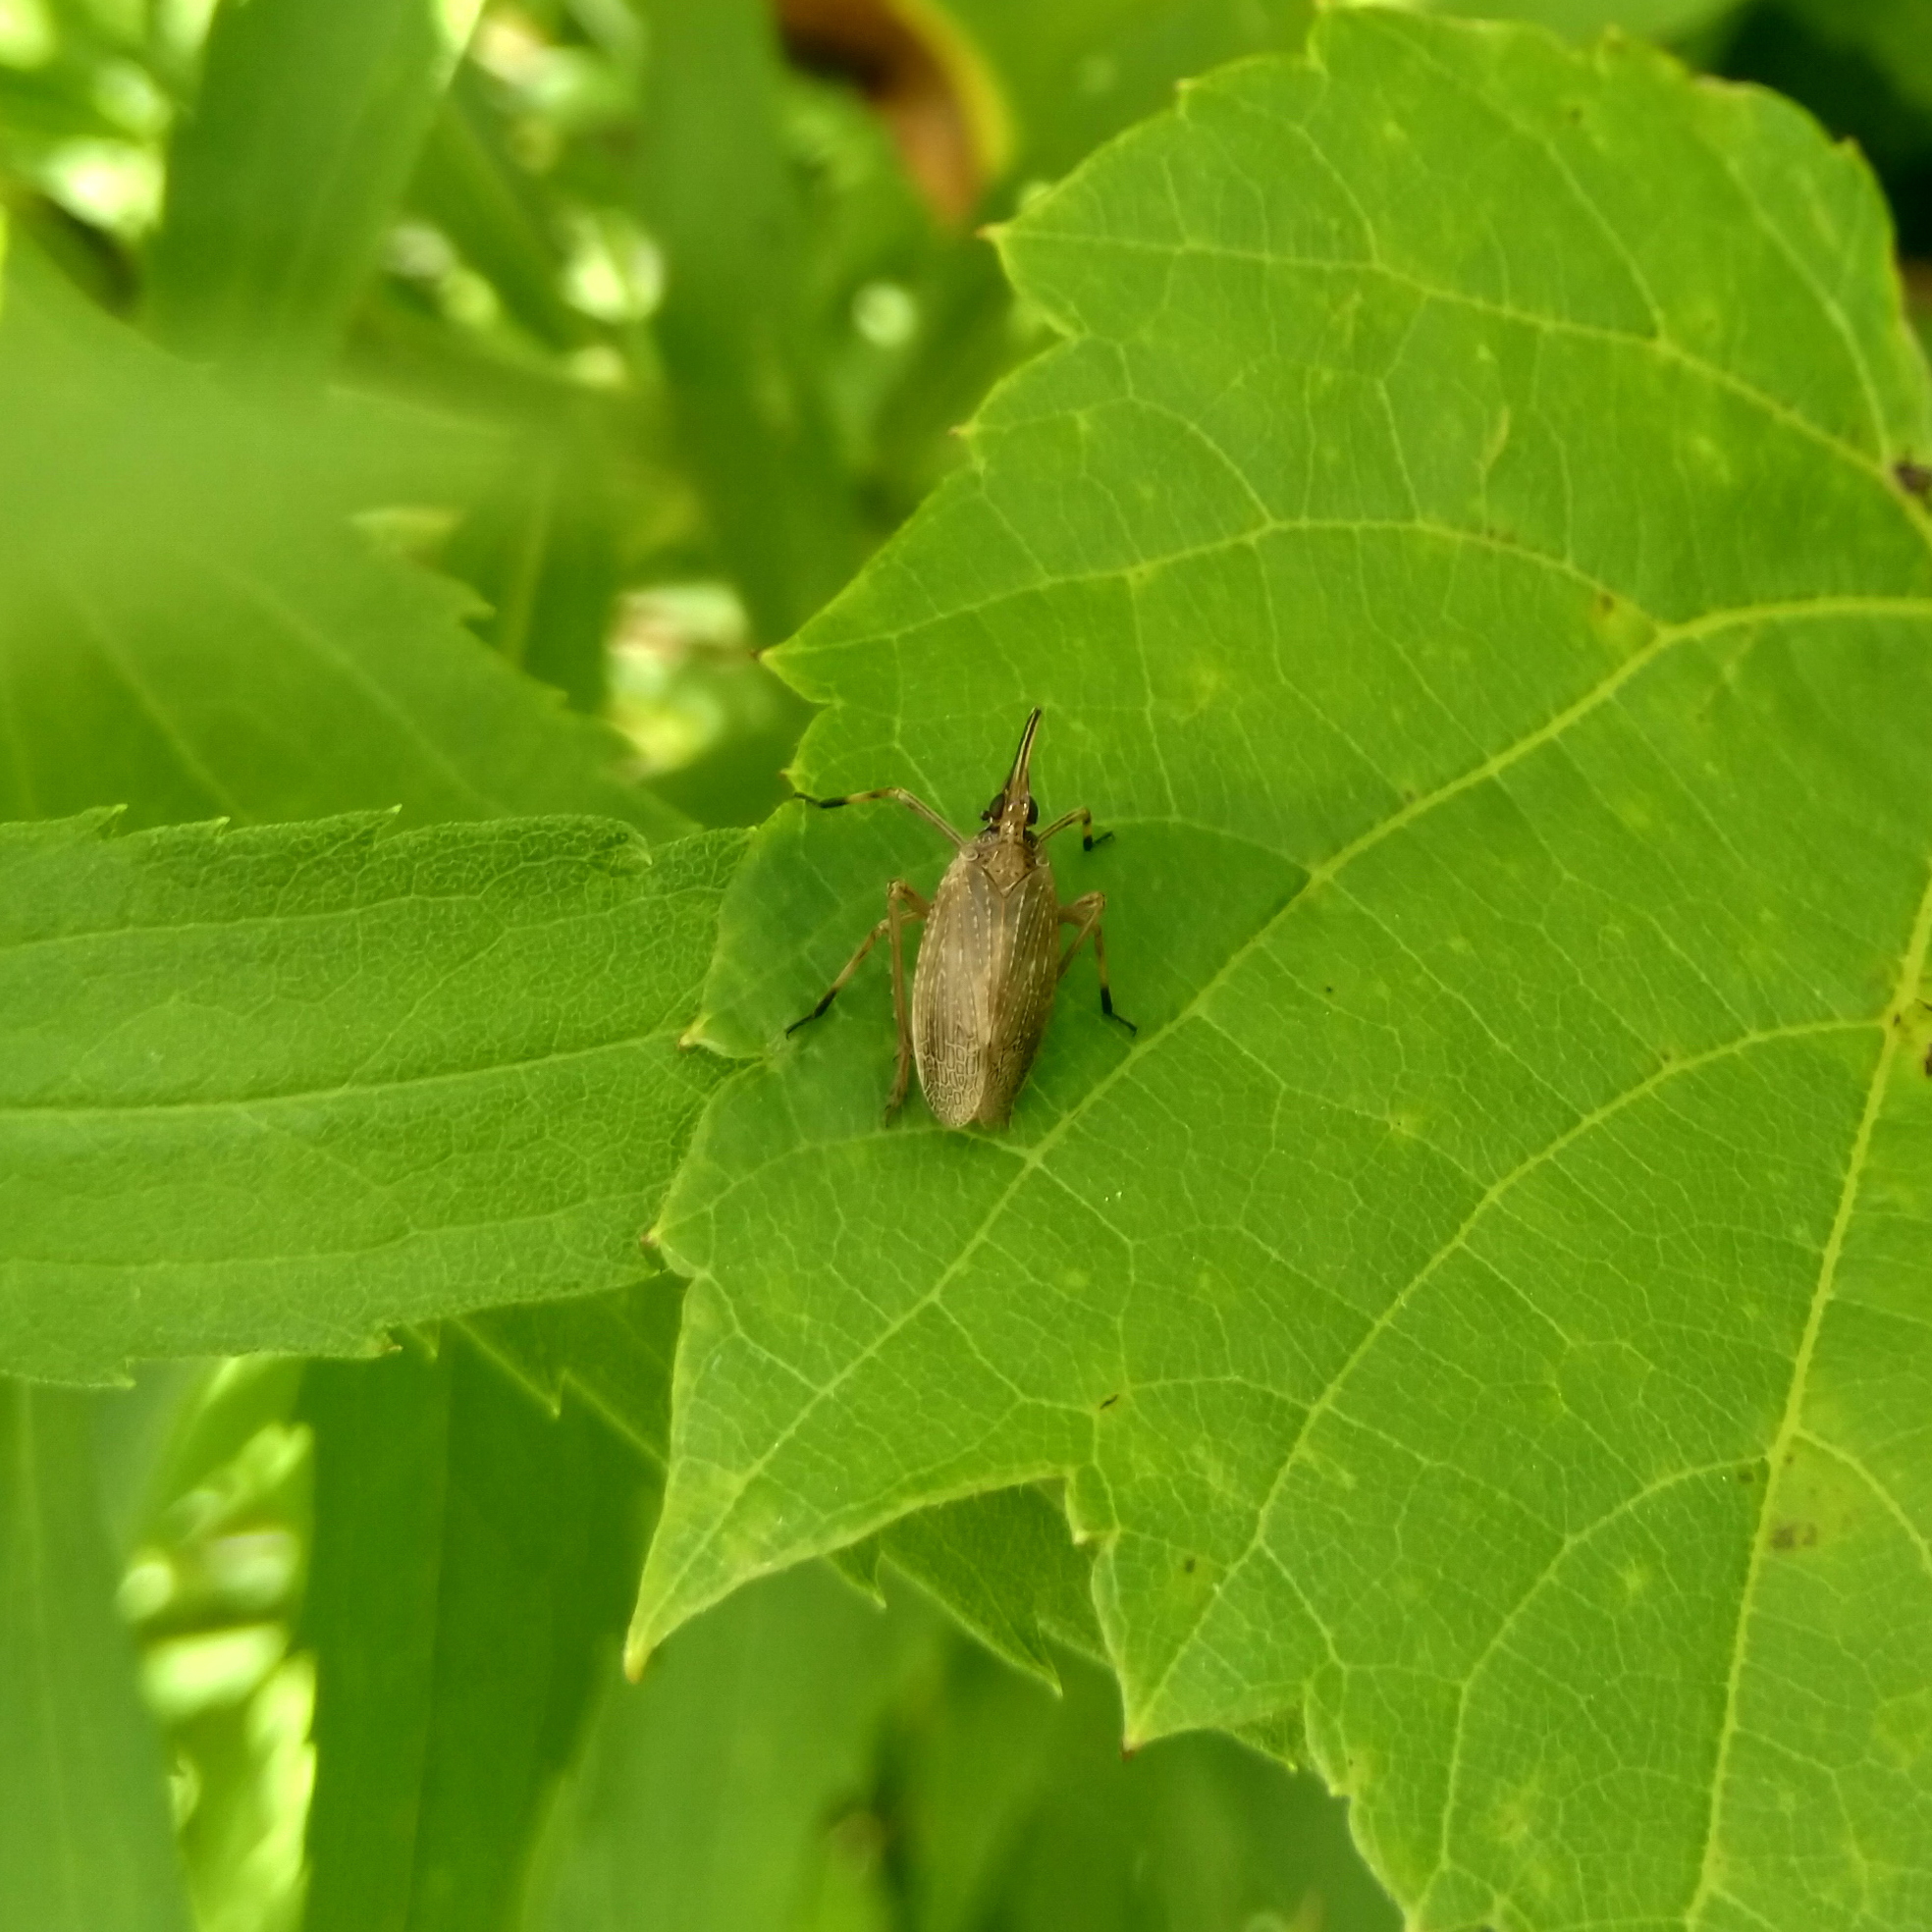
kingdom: Animalia
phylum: Arthropoda
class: Insecta
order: Hemiptera
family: Dictyopharidae
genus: Scolops
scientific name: Scolops sulcipes
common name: Partridge planthopper
